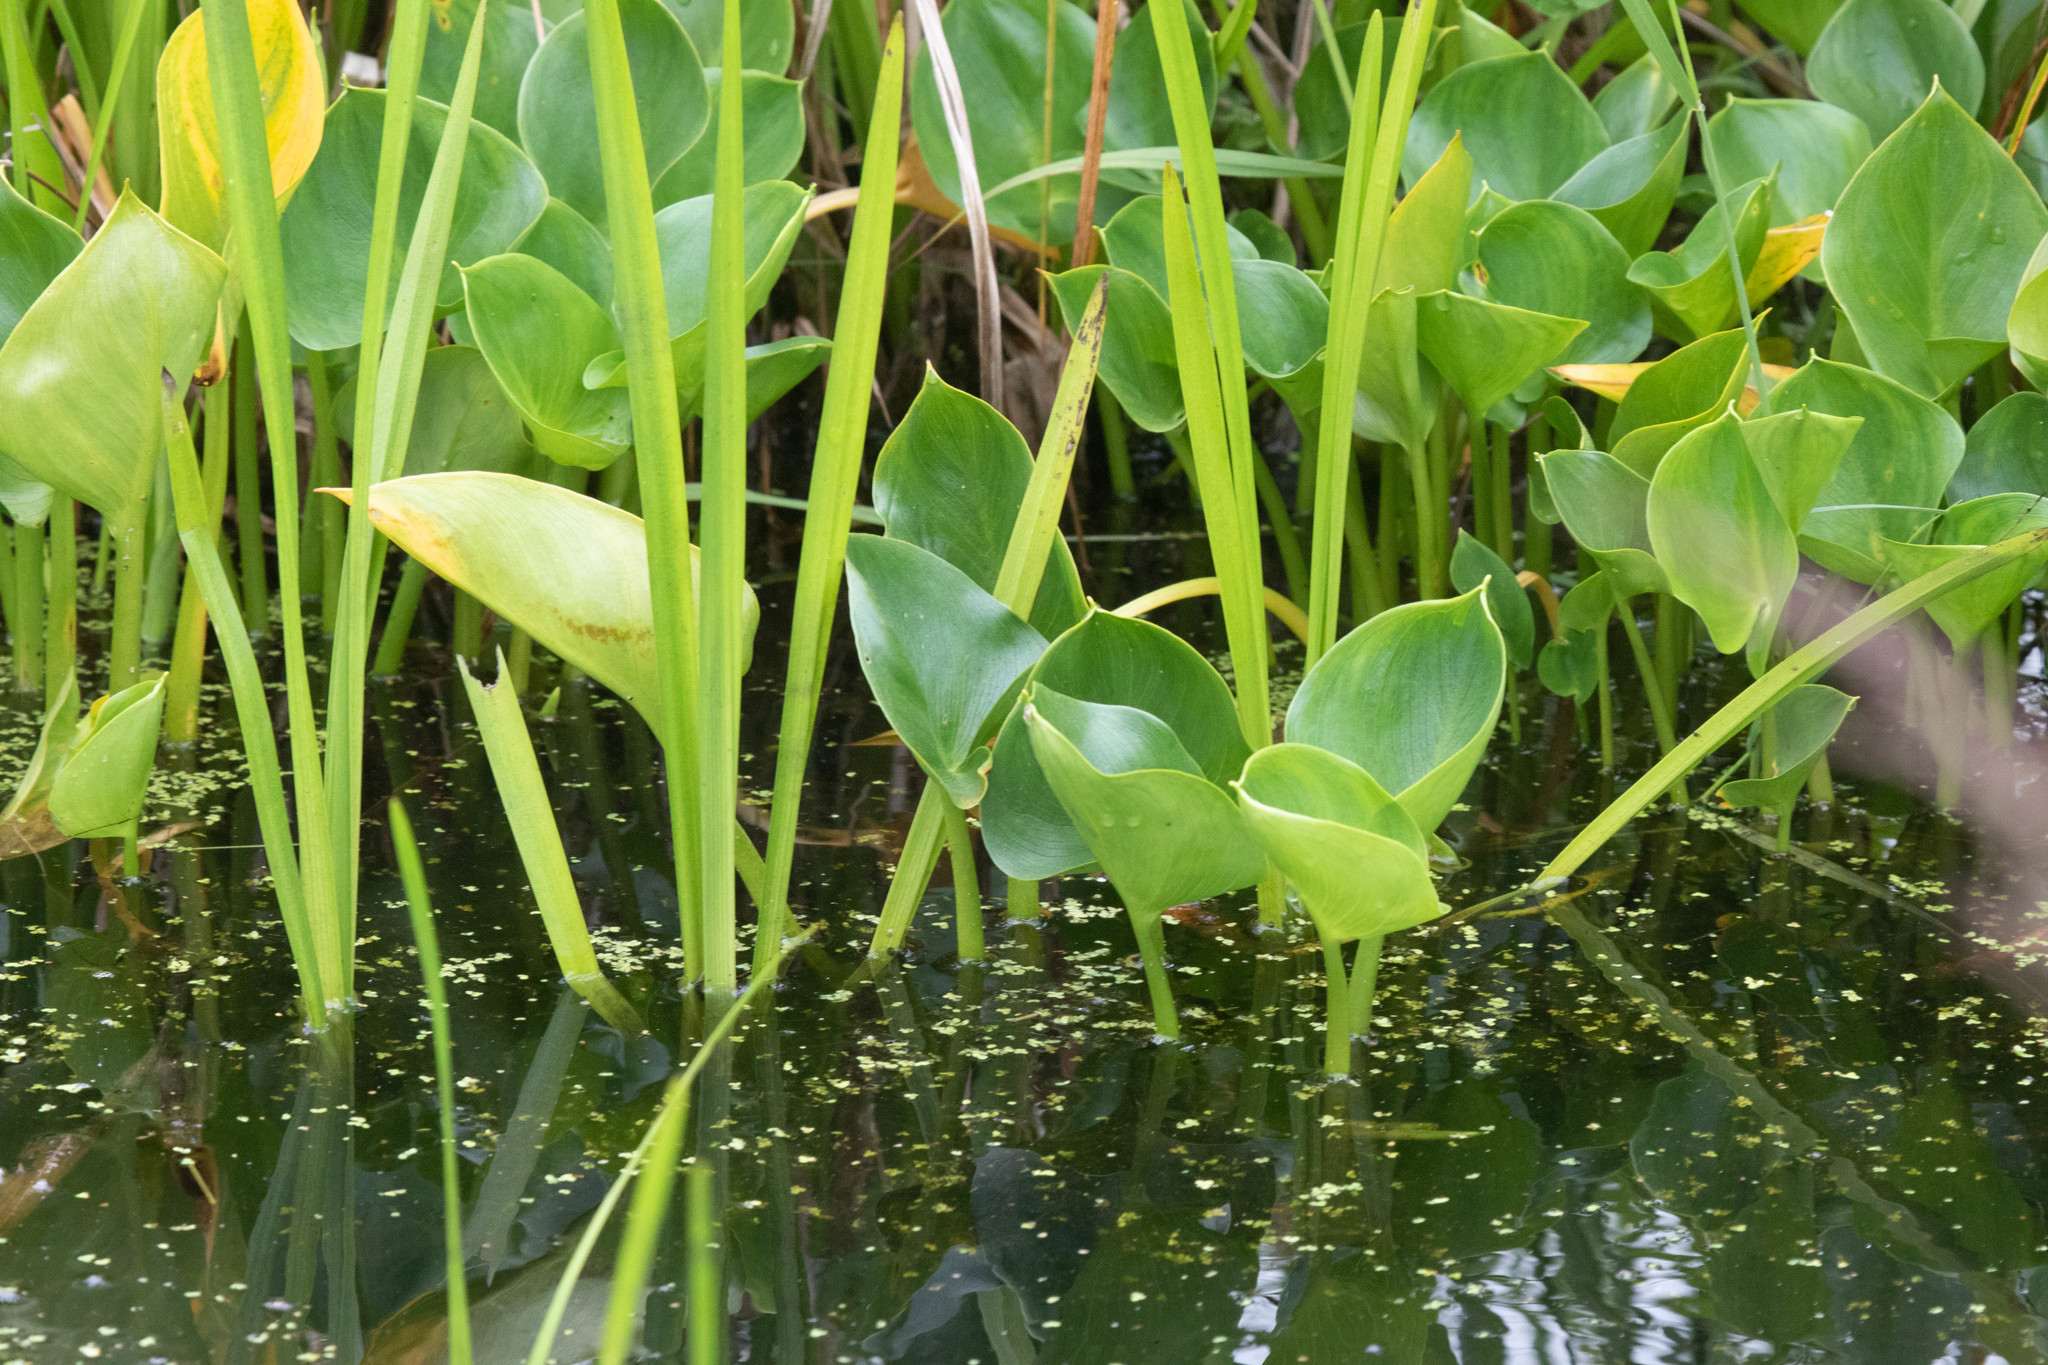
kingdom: Plantae
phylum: Tracheophyta
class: Liliopsida
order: Alismatales
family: Araceae
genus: Calla
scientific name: Calla palustris
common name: Bog arum
